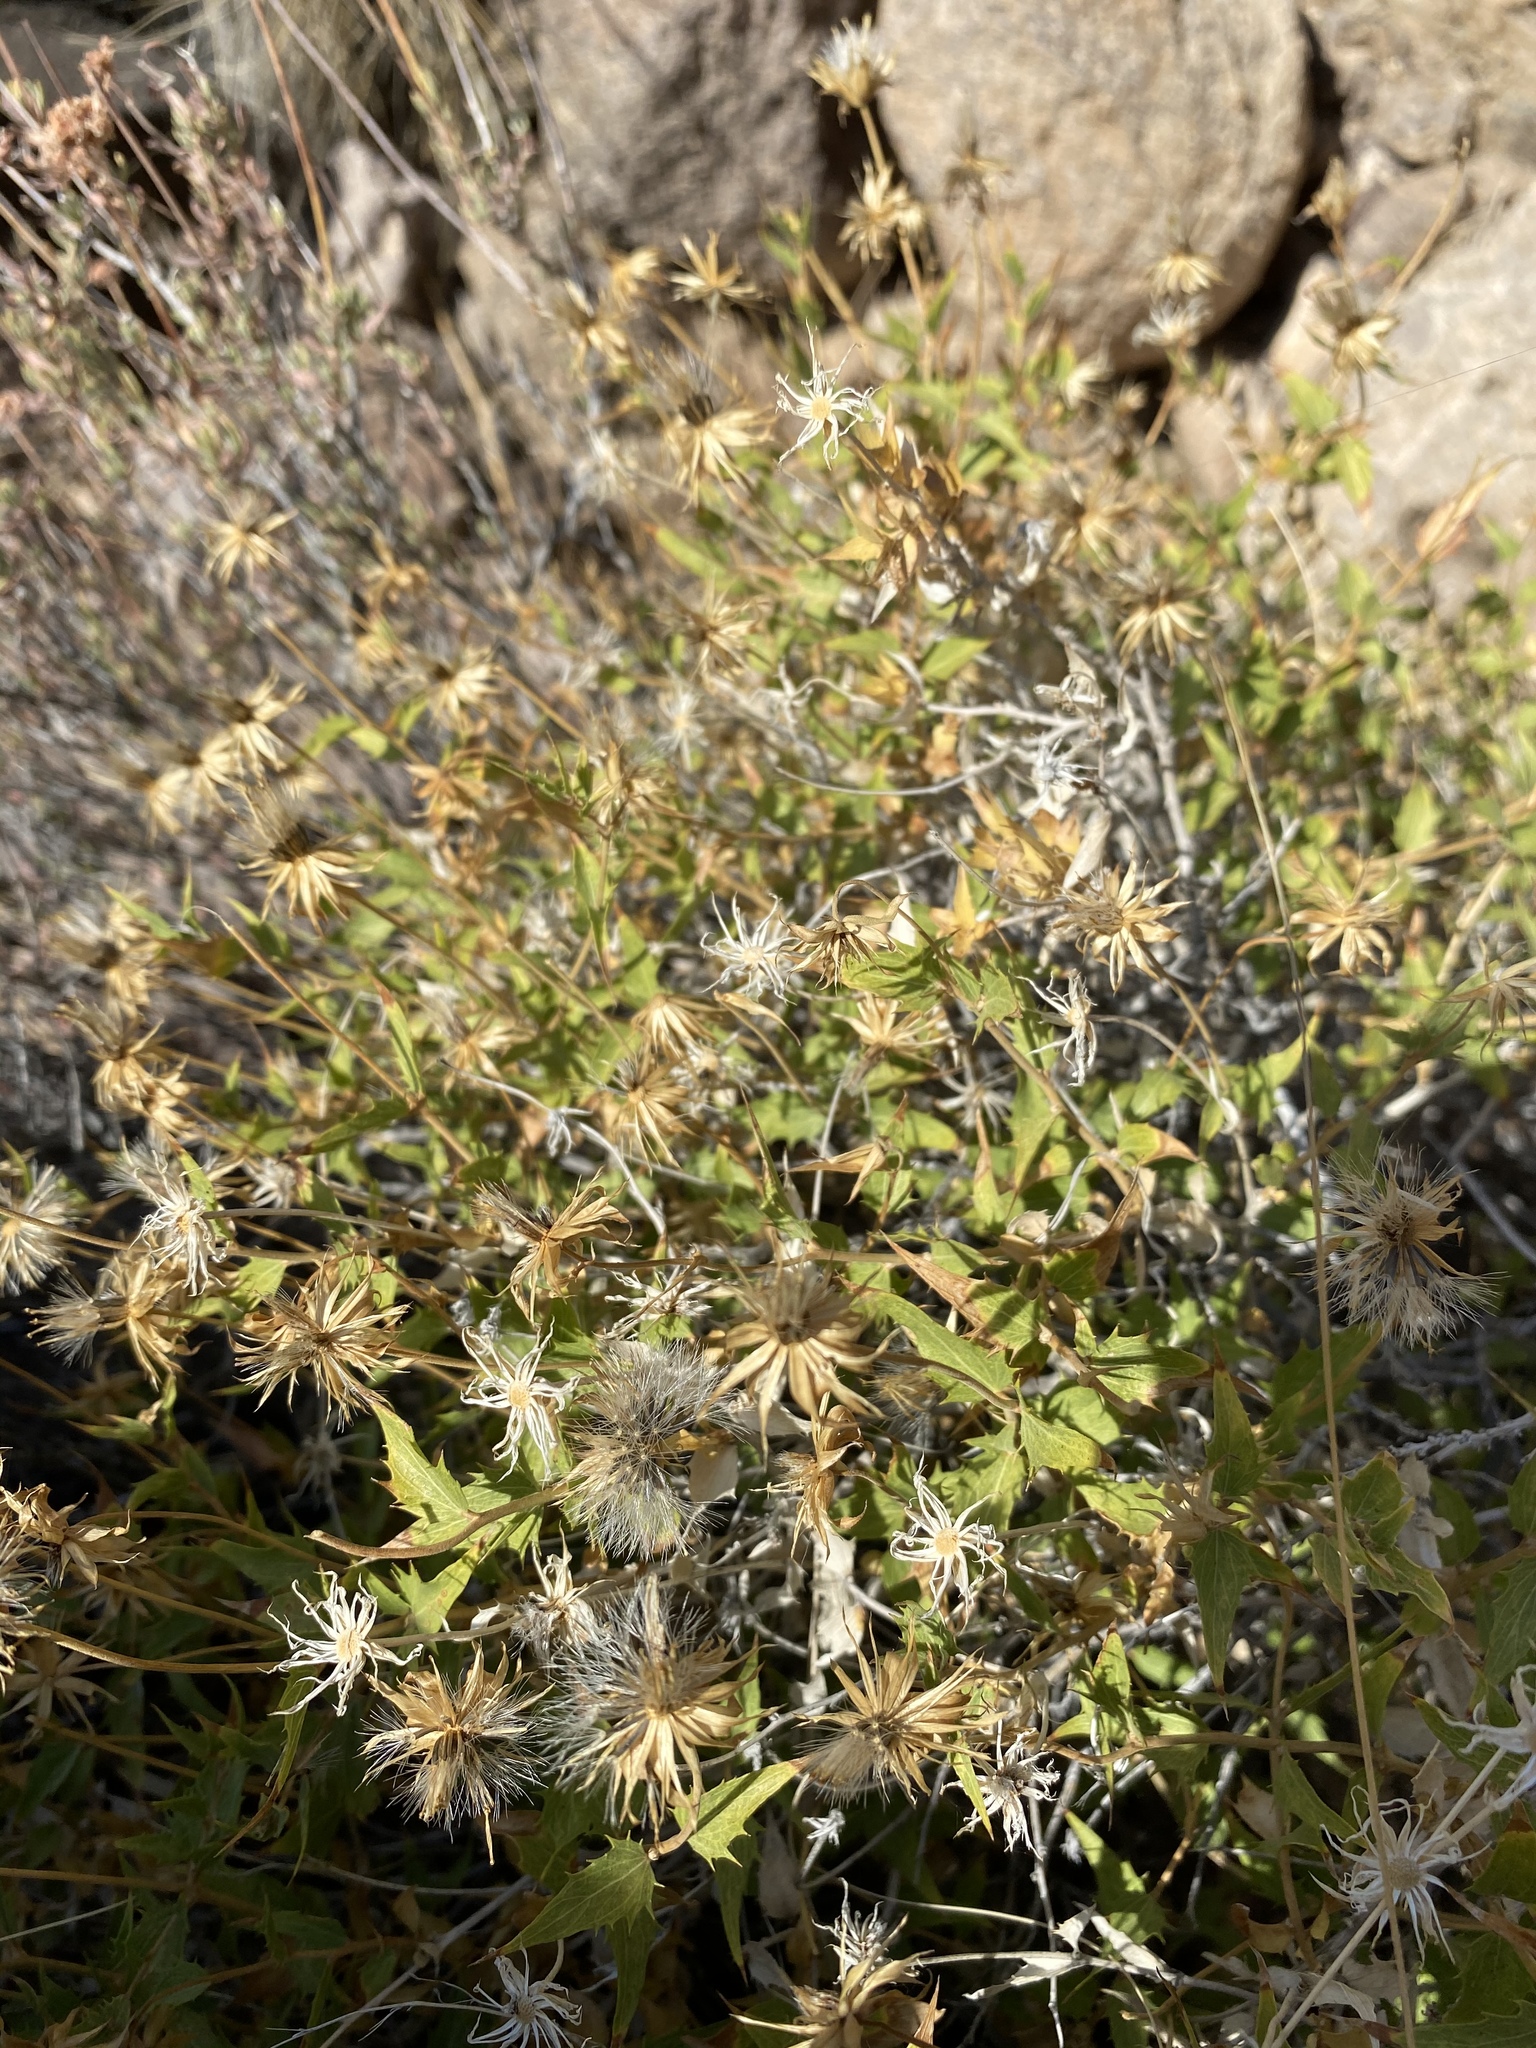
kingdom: Plantae
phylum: Tracheophyta
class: Magnoliopsida
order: Asterales
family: Asteraceae
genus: Brickellia
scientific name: Brickellia atractyloides
